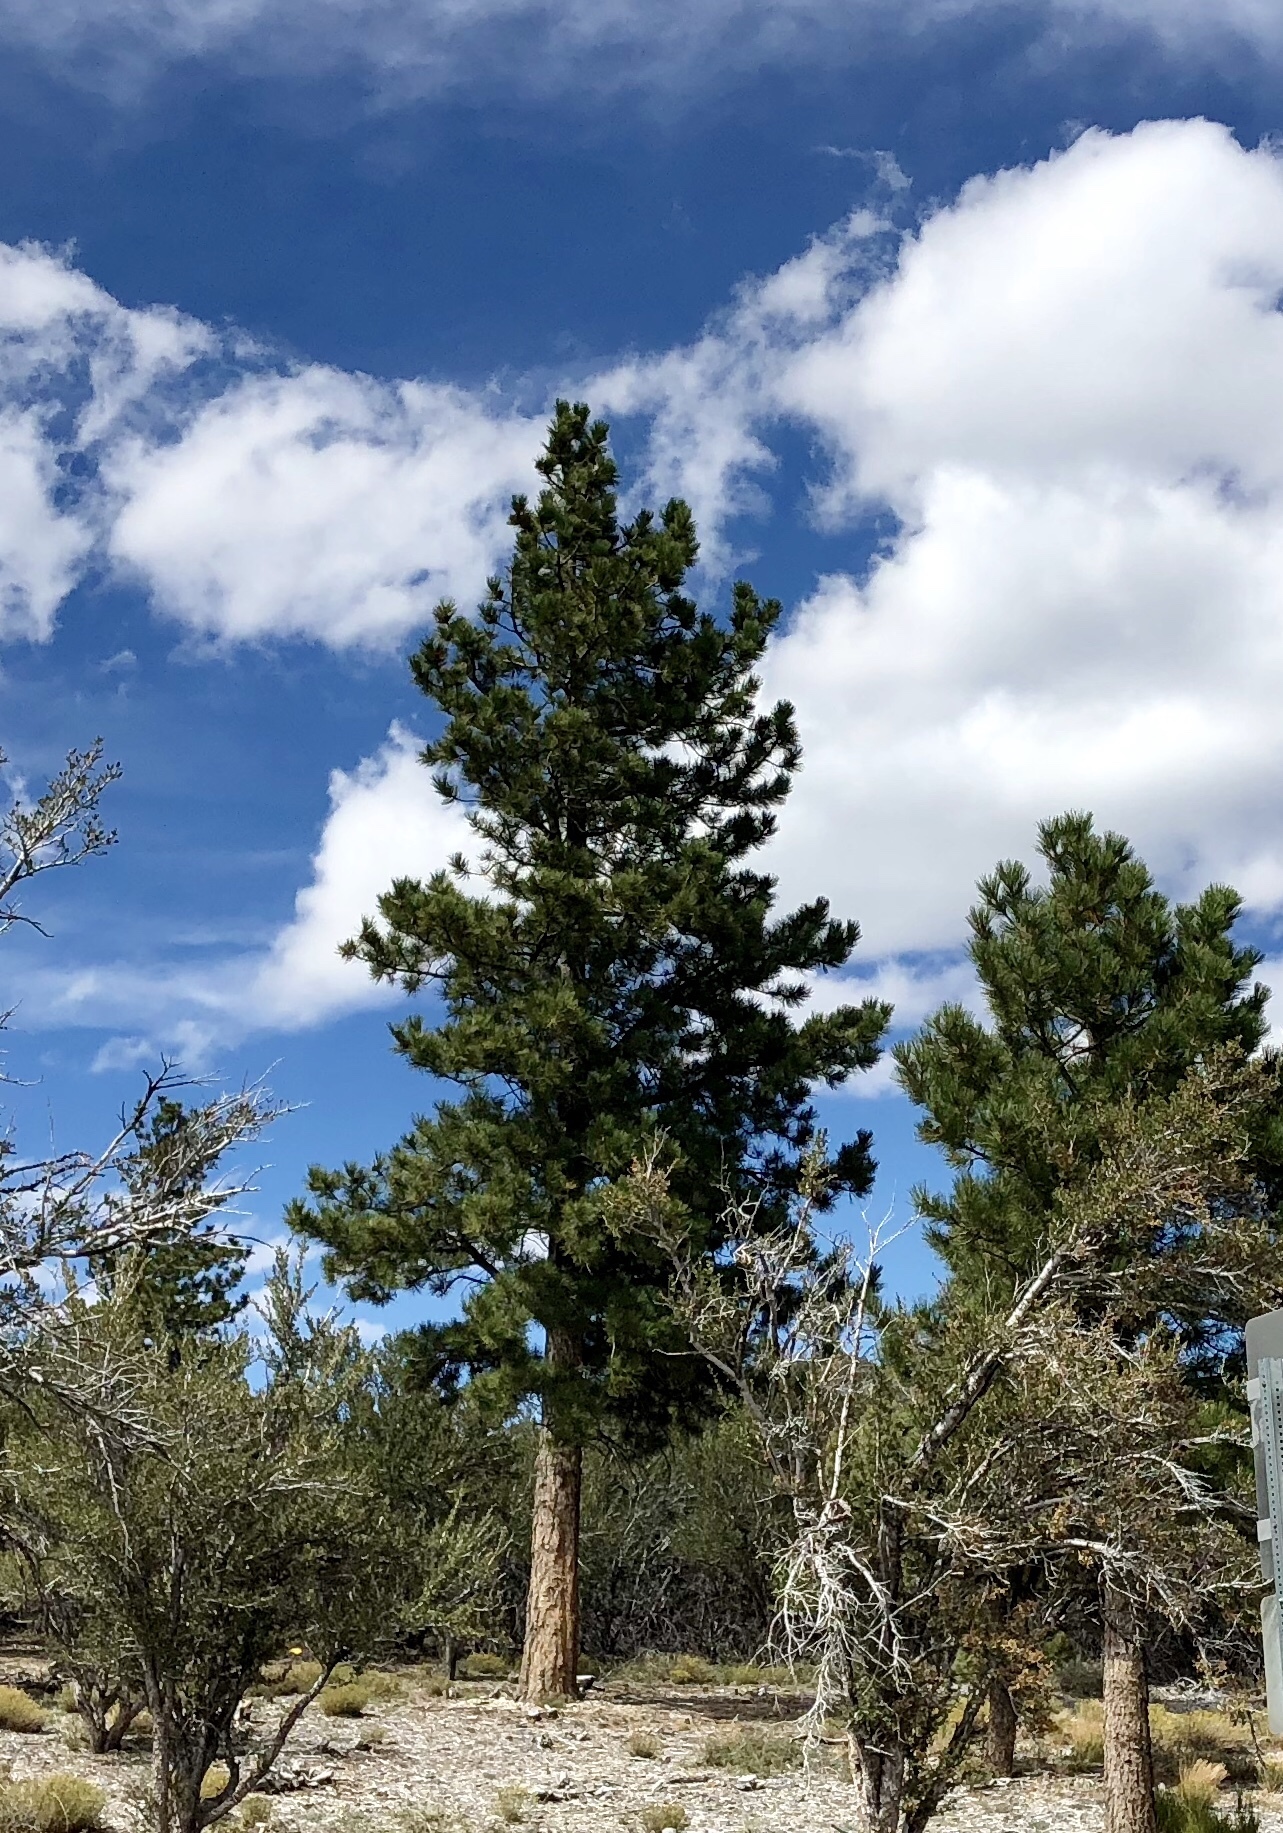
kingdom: Plantae
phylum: Tracheophyta
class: Pinopsida
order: Pinales
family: Pinaceae
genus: Pinus
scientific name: Pinus ponderosa
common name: Western yellow-pine
